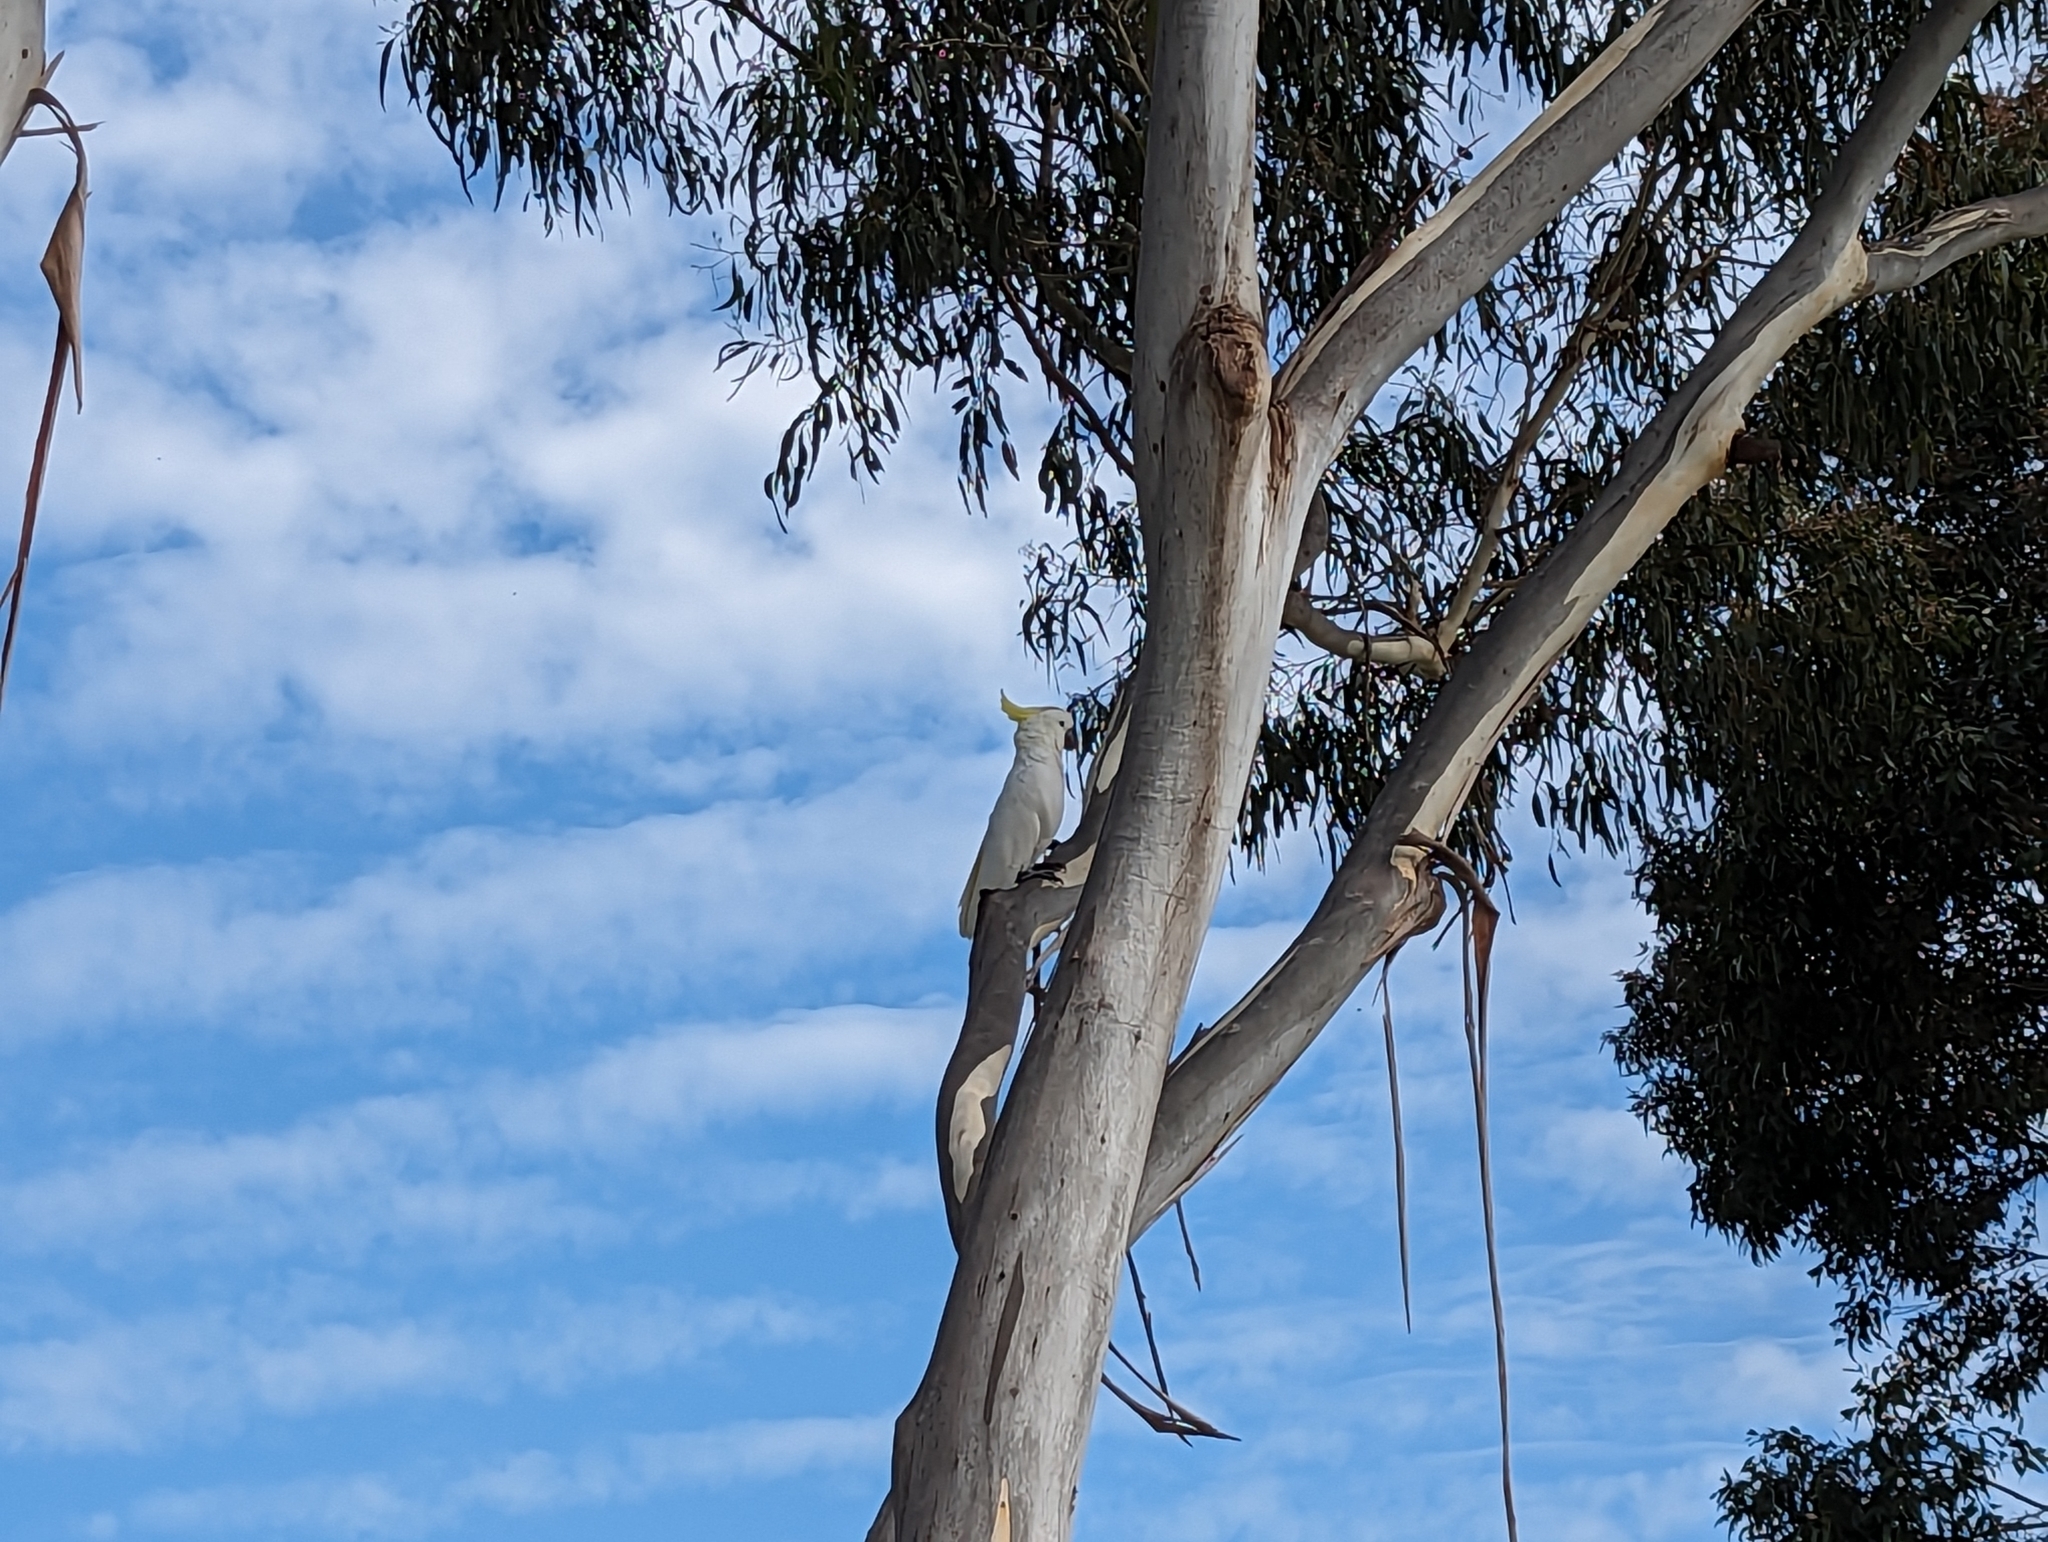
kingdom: Animalia
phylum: Chordata
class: Aves
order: Psittaciformes
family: Psittacidae
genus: Cacatua
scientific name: Cacatua galerita
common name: Sulphur-crested cockatoo
